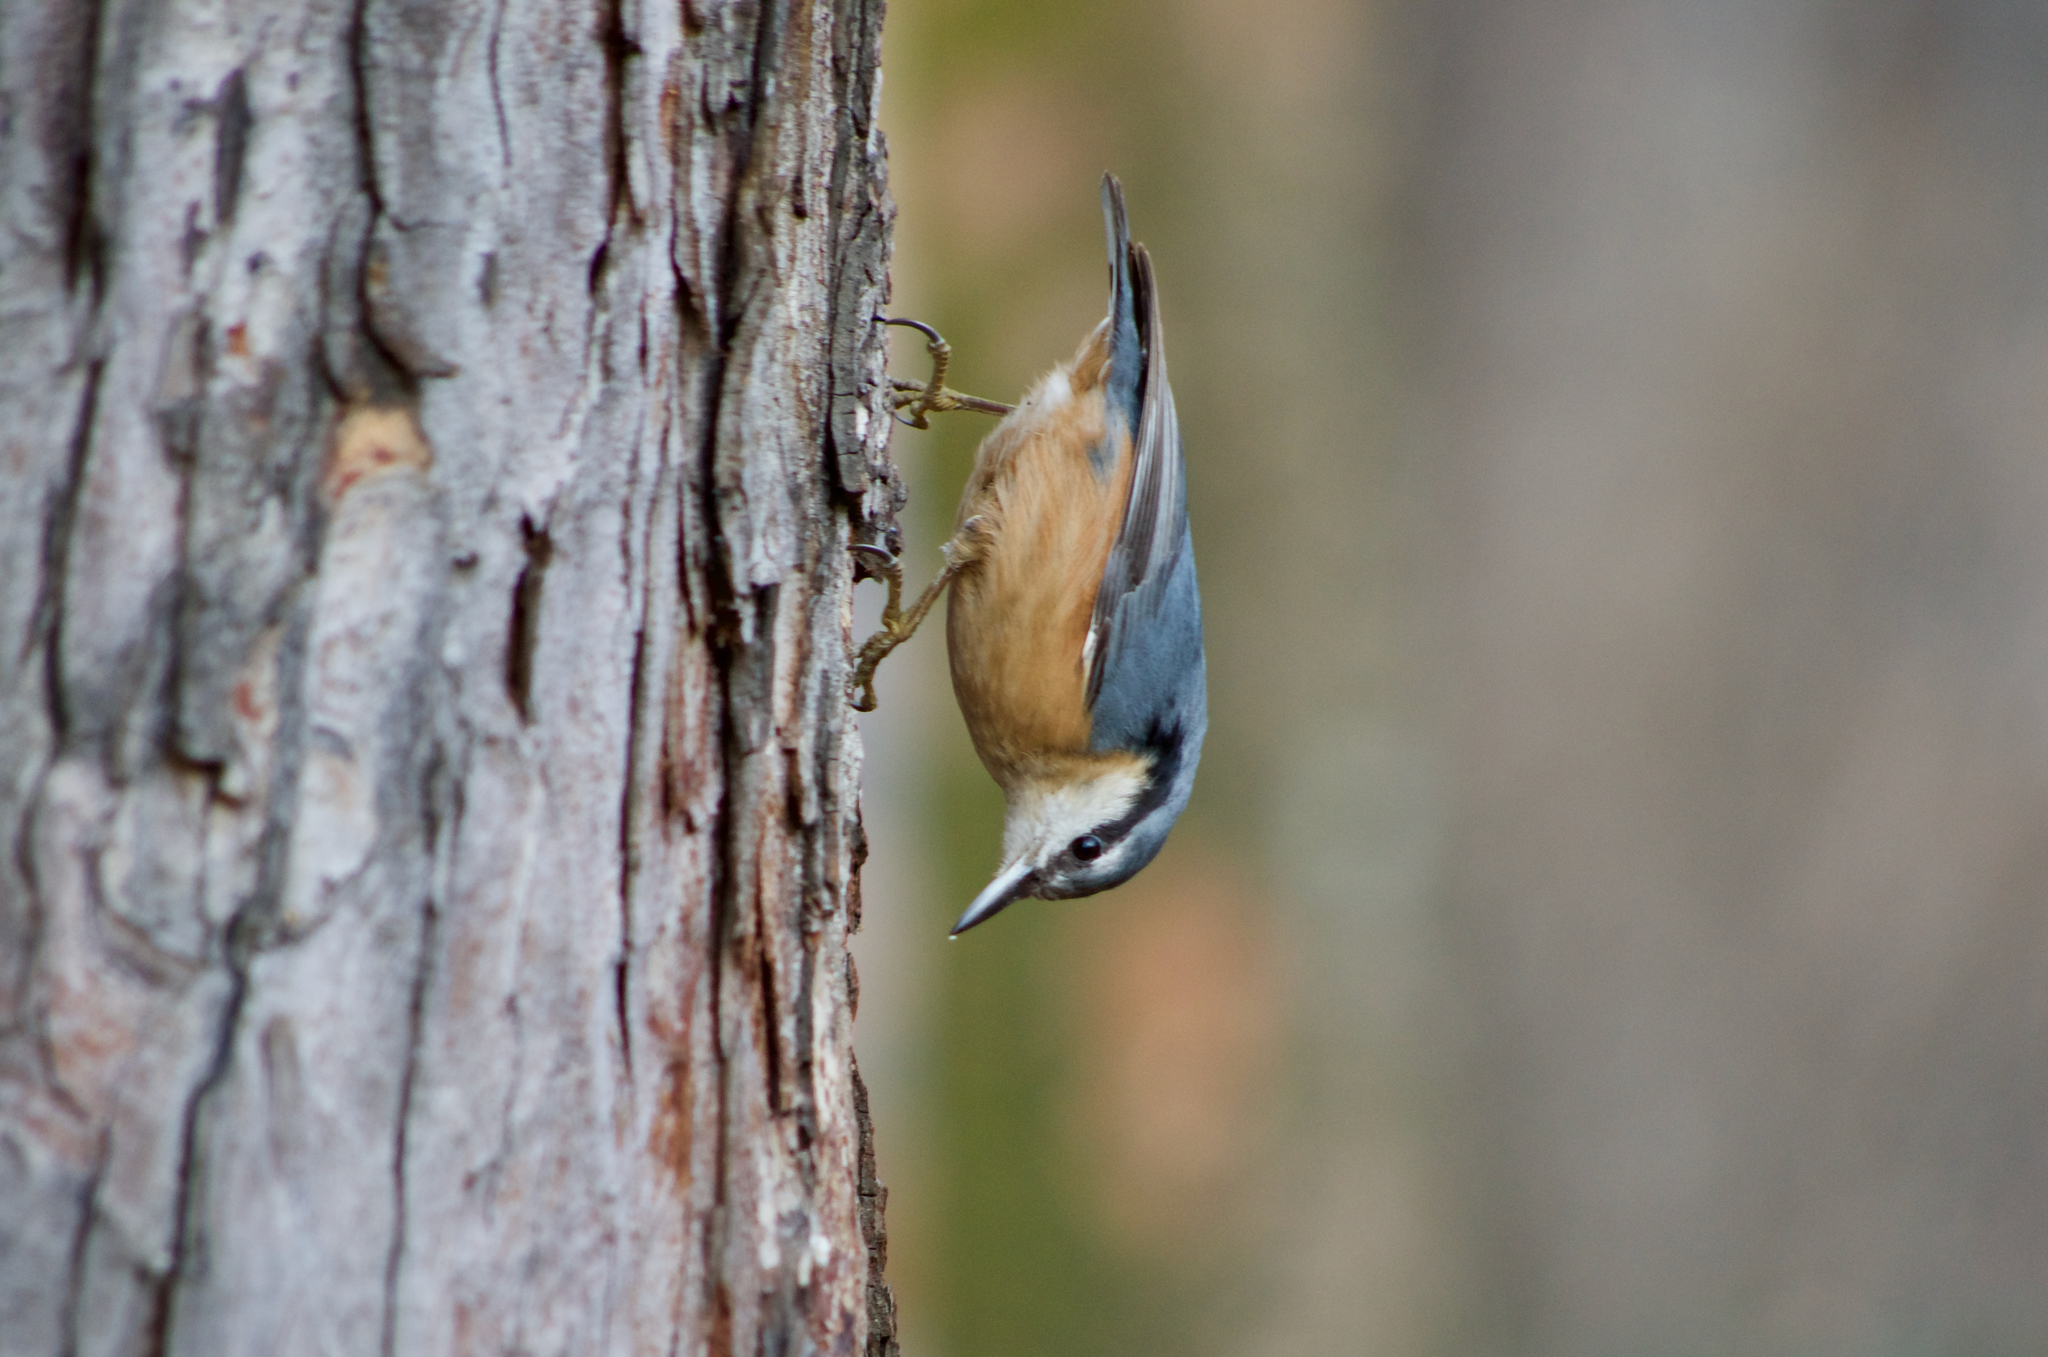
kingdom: Animalia
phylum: Chordata
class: Aves
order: Passeriformes
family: Sittidae
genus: Sitta
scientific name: Sitta europaea
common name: Eurasian nuthatch
